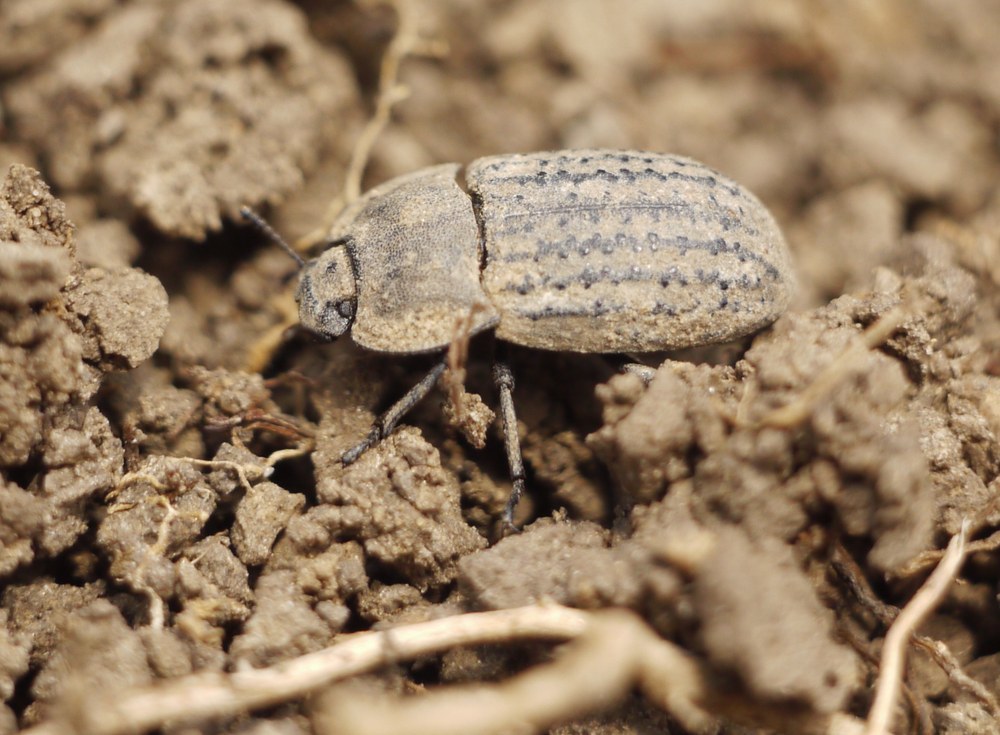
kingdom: Animalia
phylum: Arthropoda
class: Insecta
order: Coleoptera
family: Tenebrionidae
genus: Opatrum
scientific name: Opatrum sabulosum
